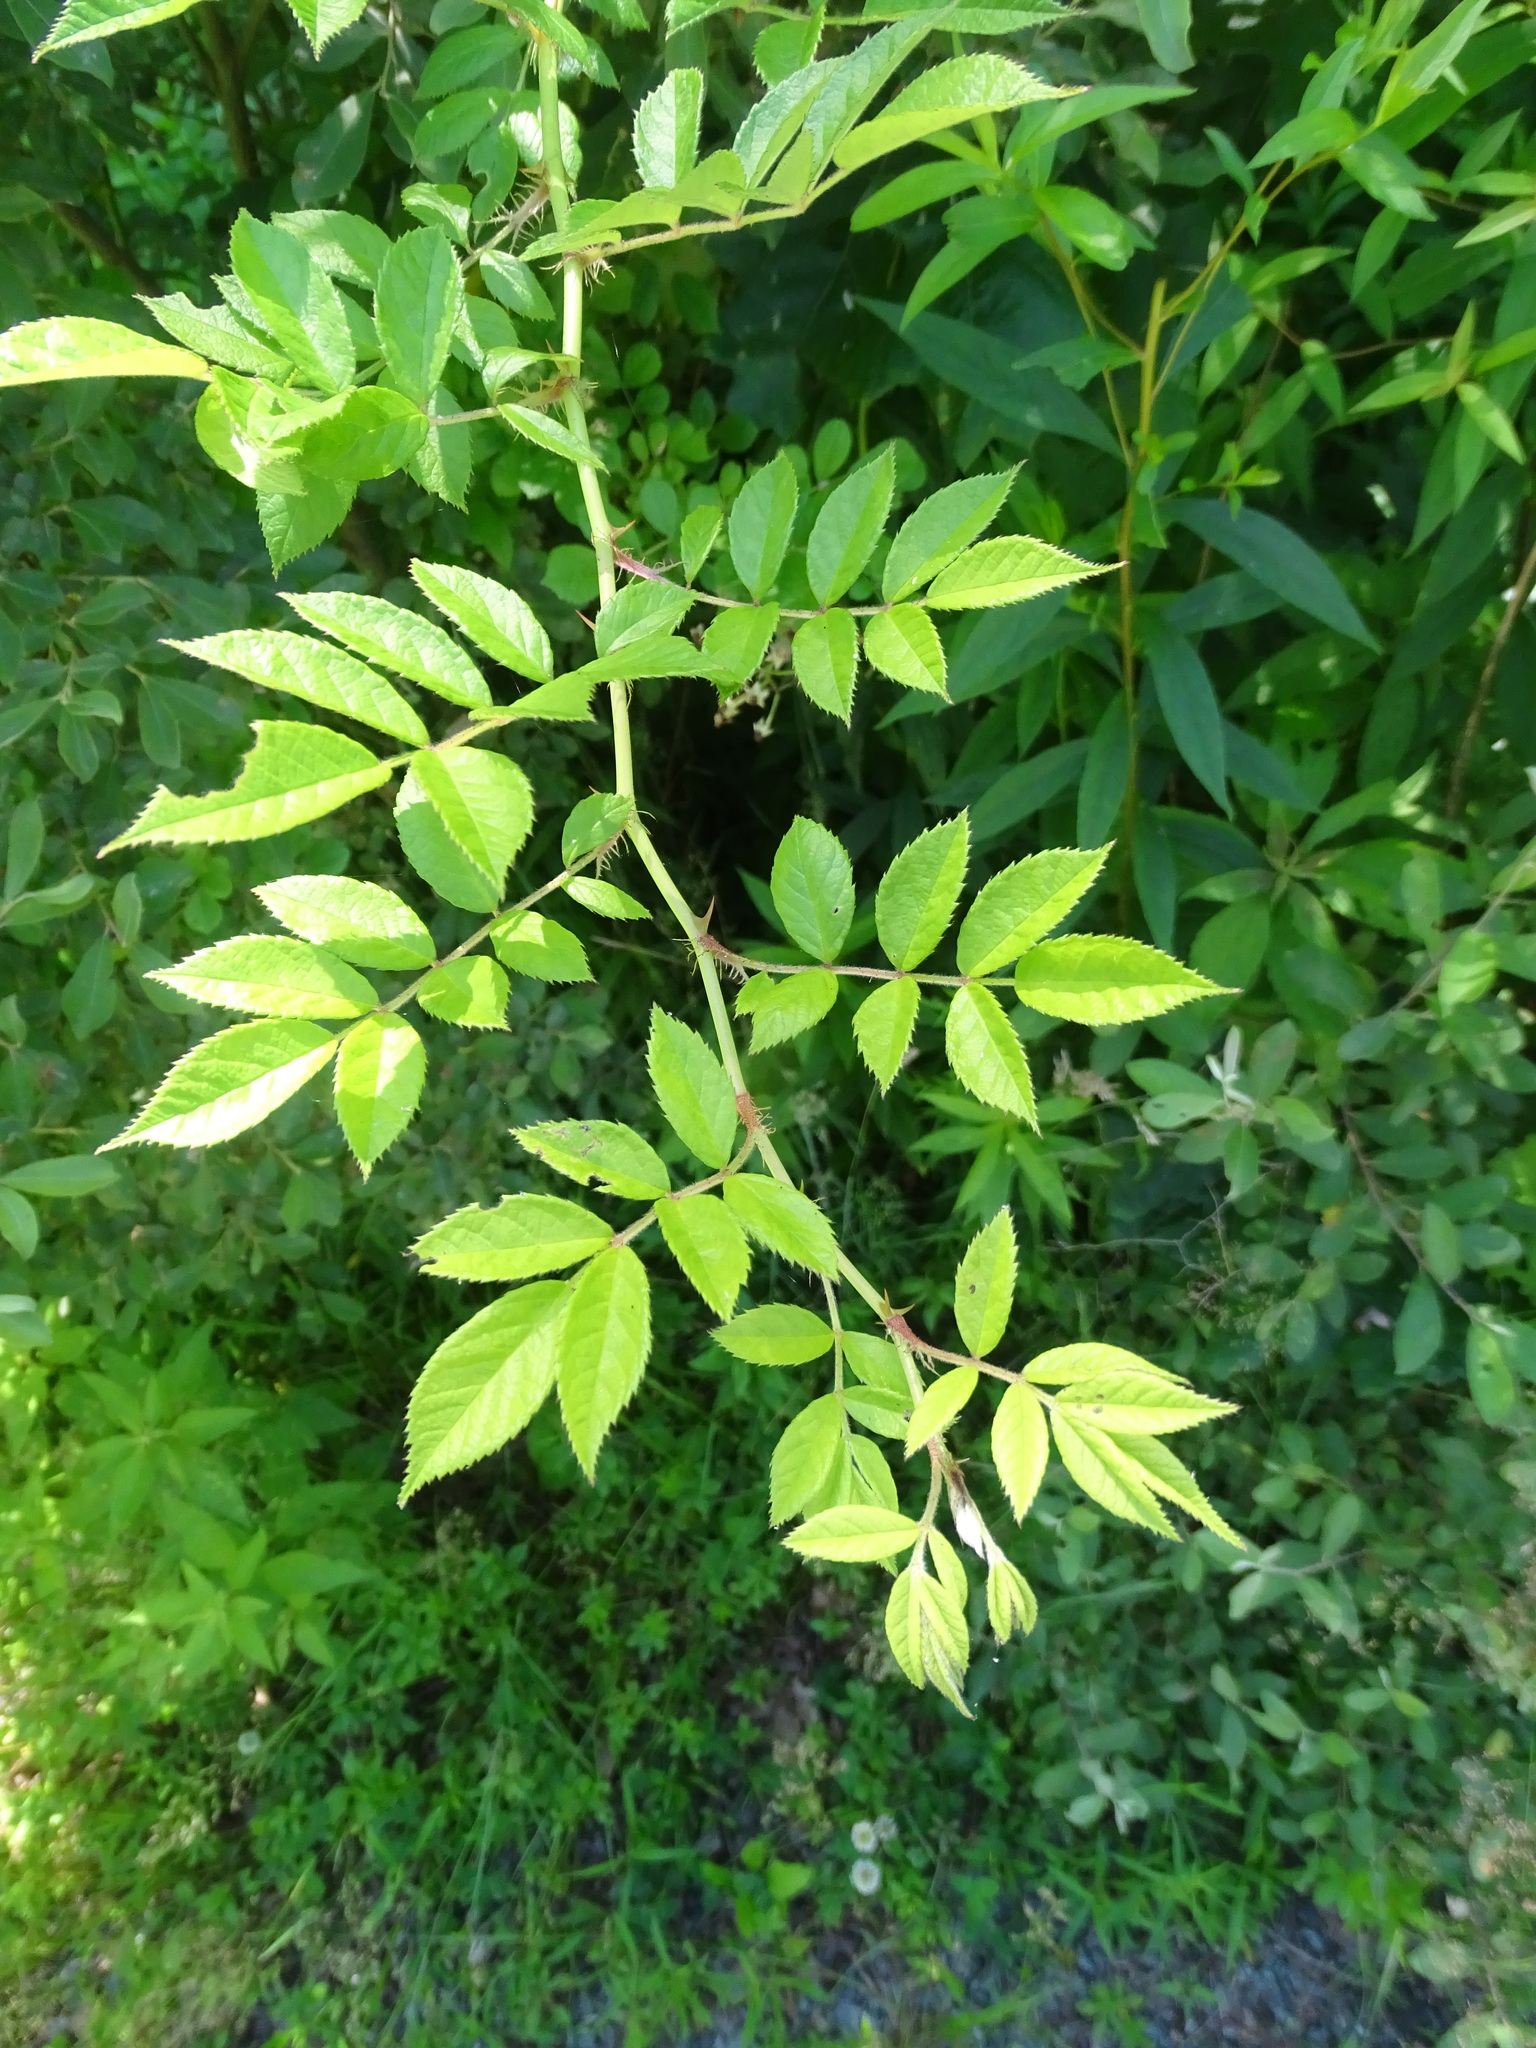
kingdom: Plantae
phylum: Tracheophyta
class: Magnoliopsida
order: Rosales
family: Rosaceae
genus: Rosa
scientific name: Rosa multiflora
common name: Multiflora rose
